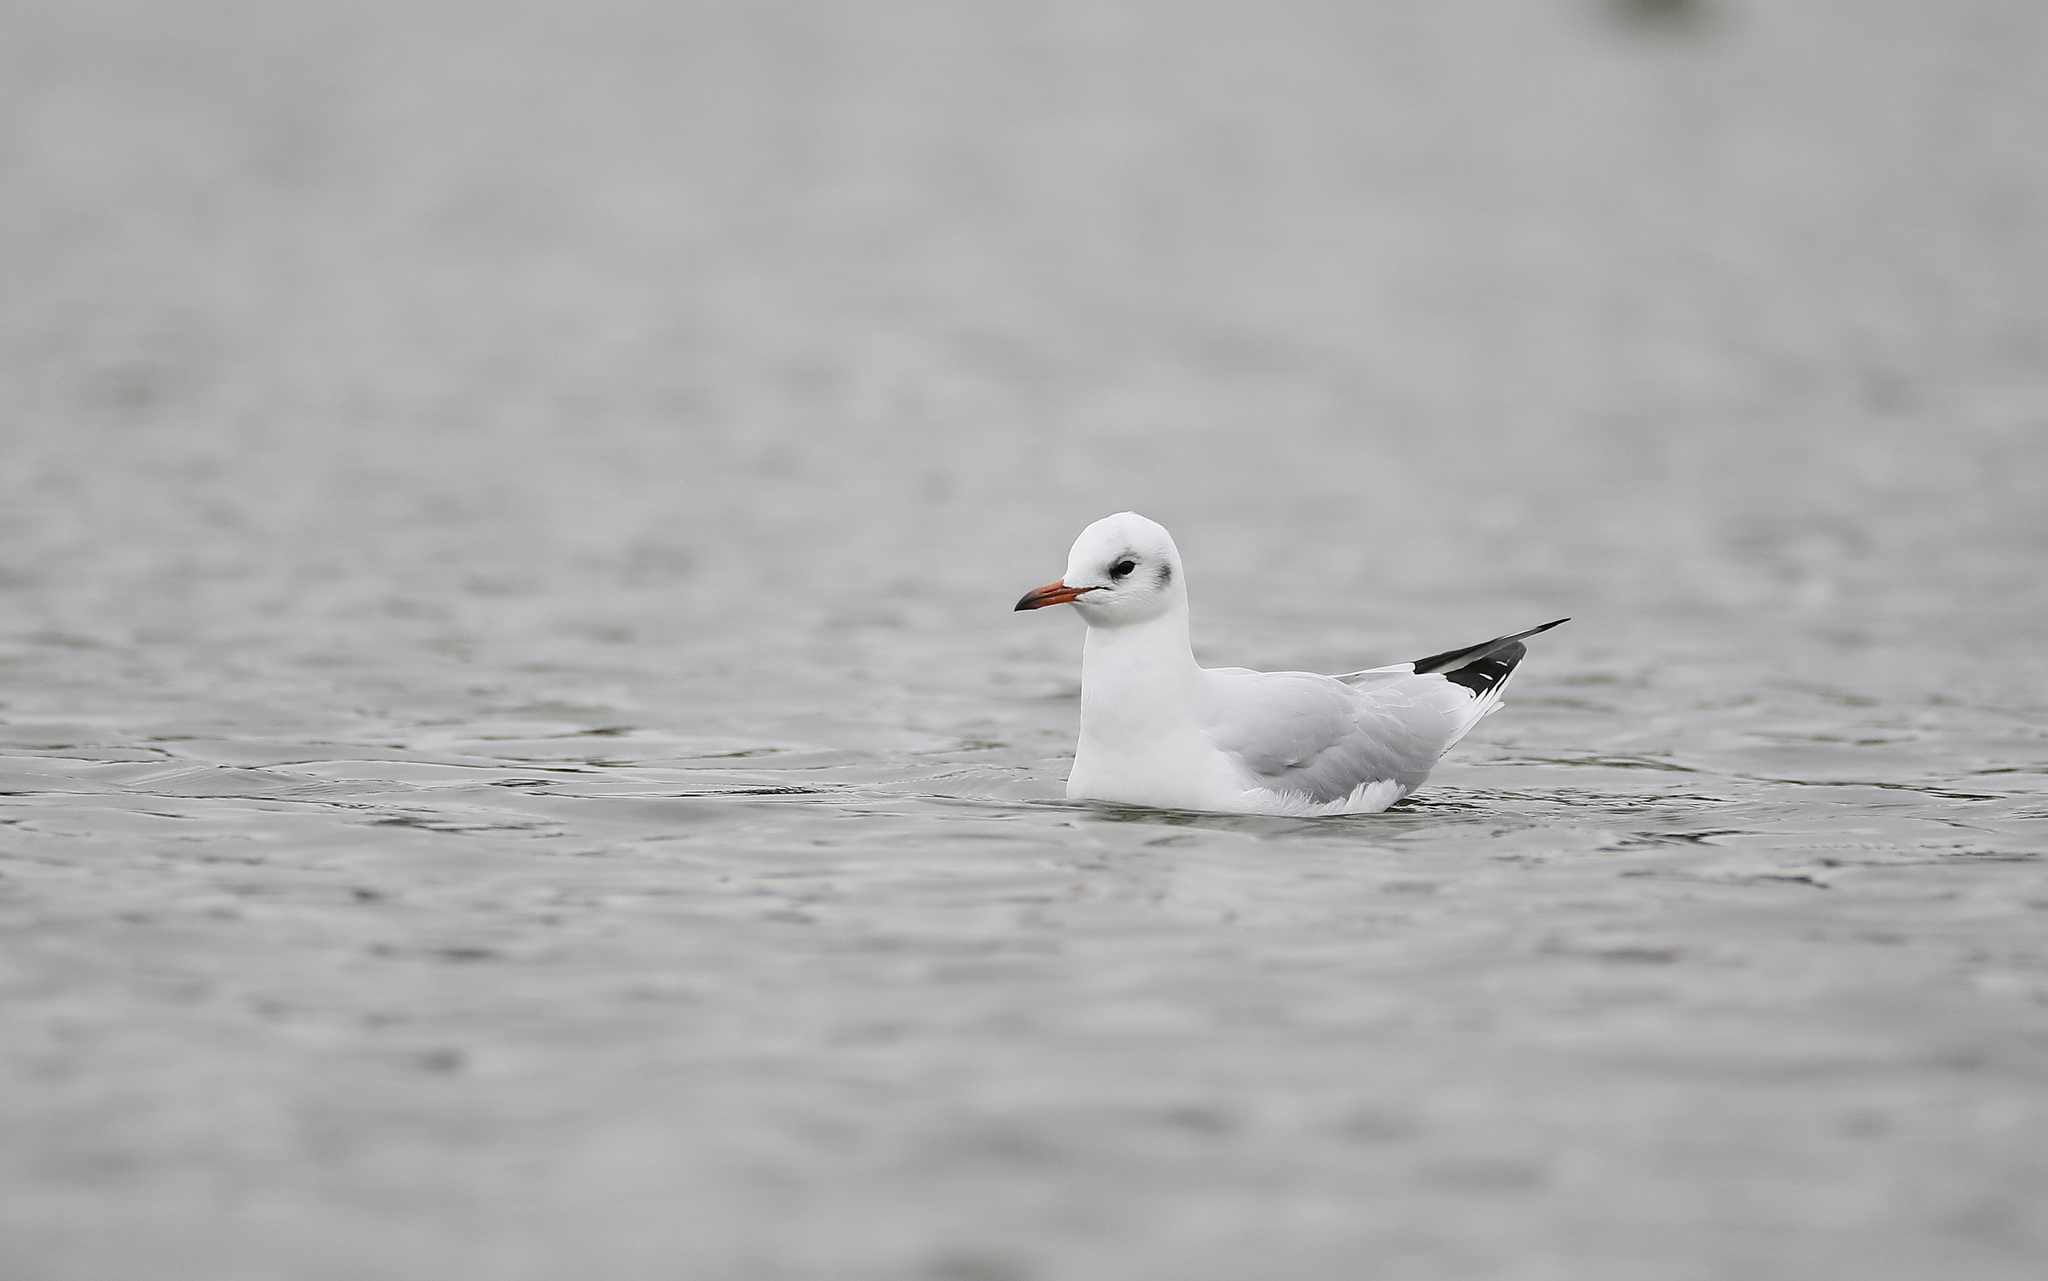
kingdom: Animalia
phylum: Chordata
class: Aves
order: Charadriiformes
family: Laridae
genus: Chroicocephalus
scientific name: Chroicocephalus ridibundus
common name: Black-headed gull
